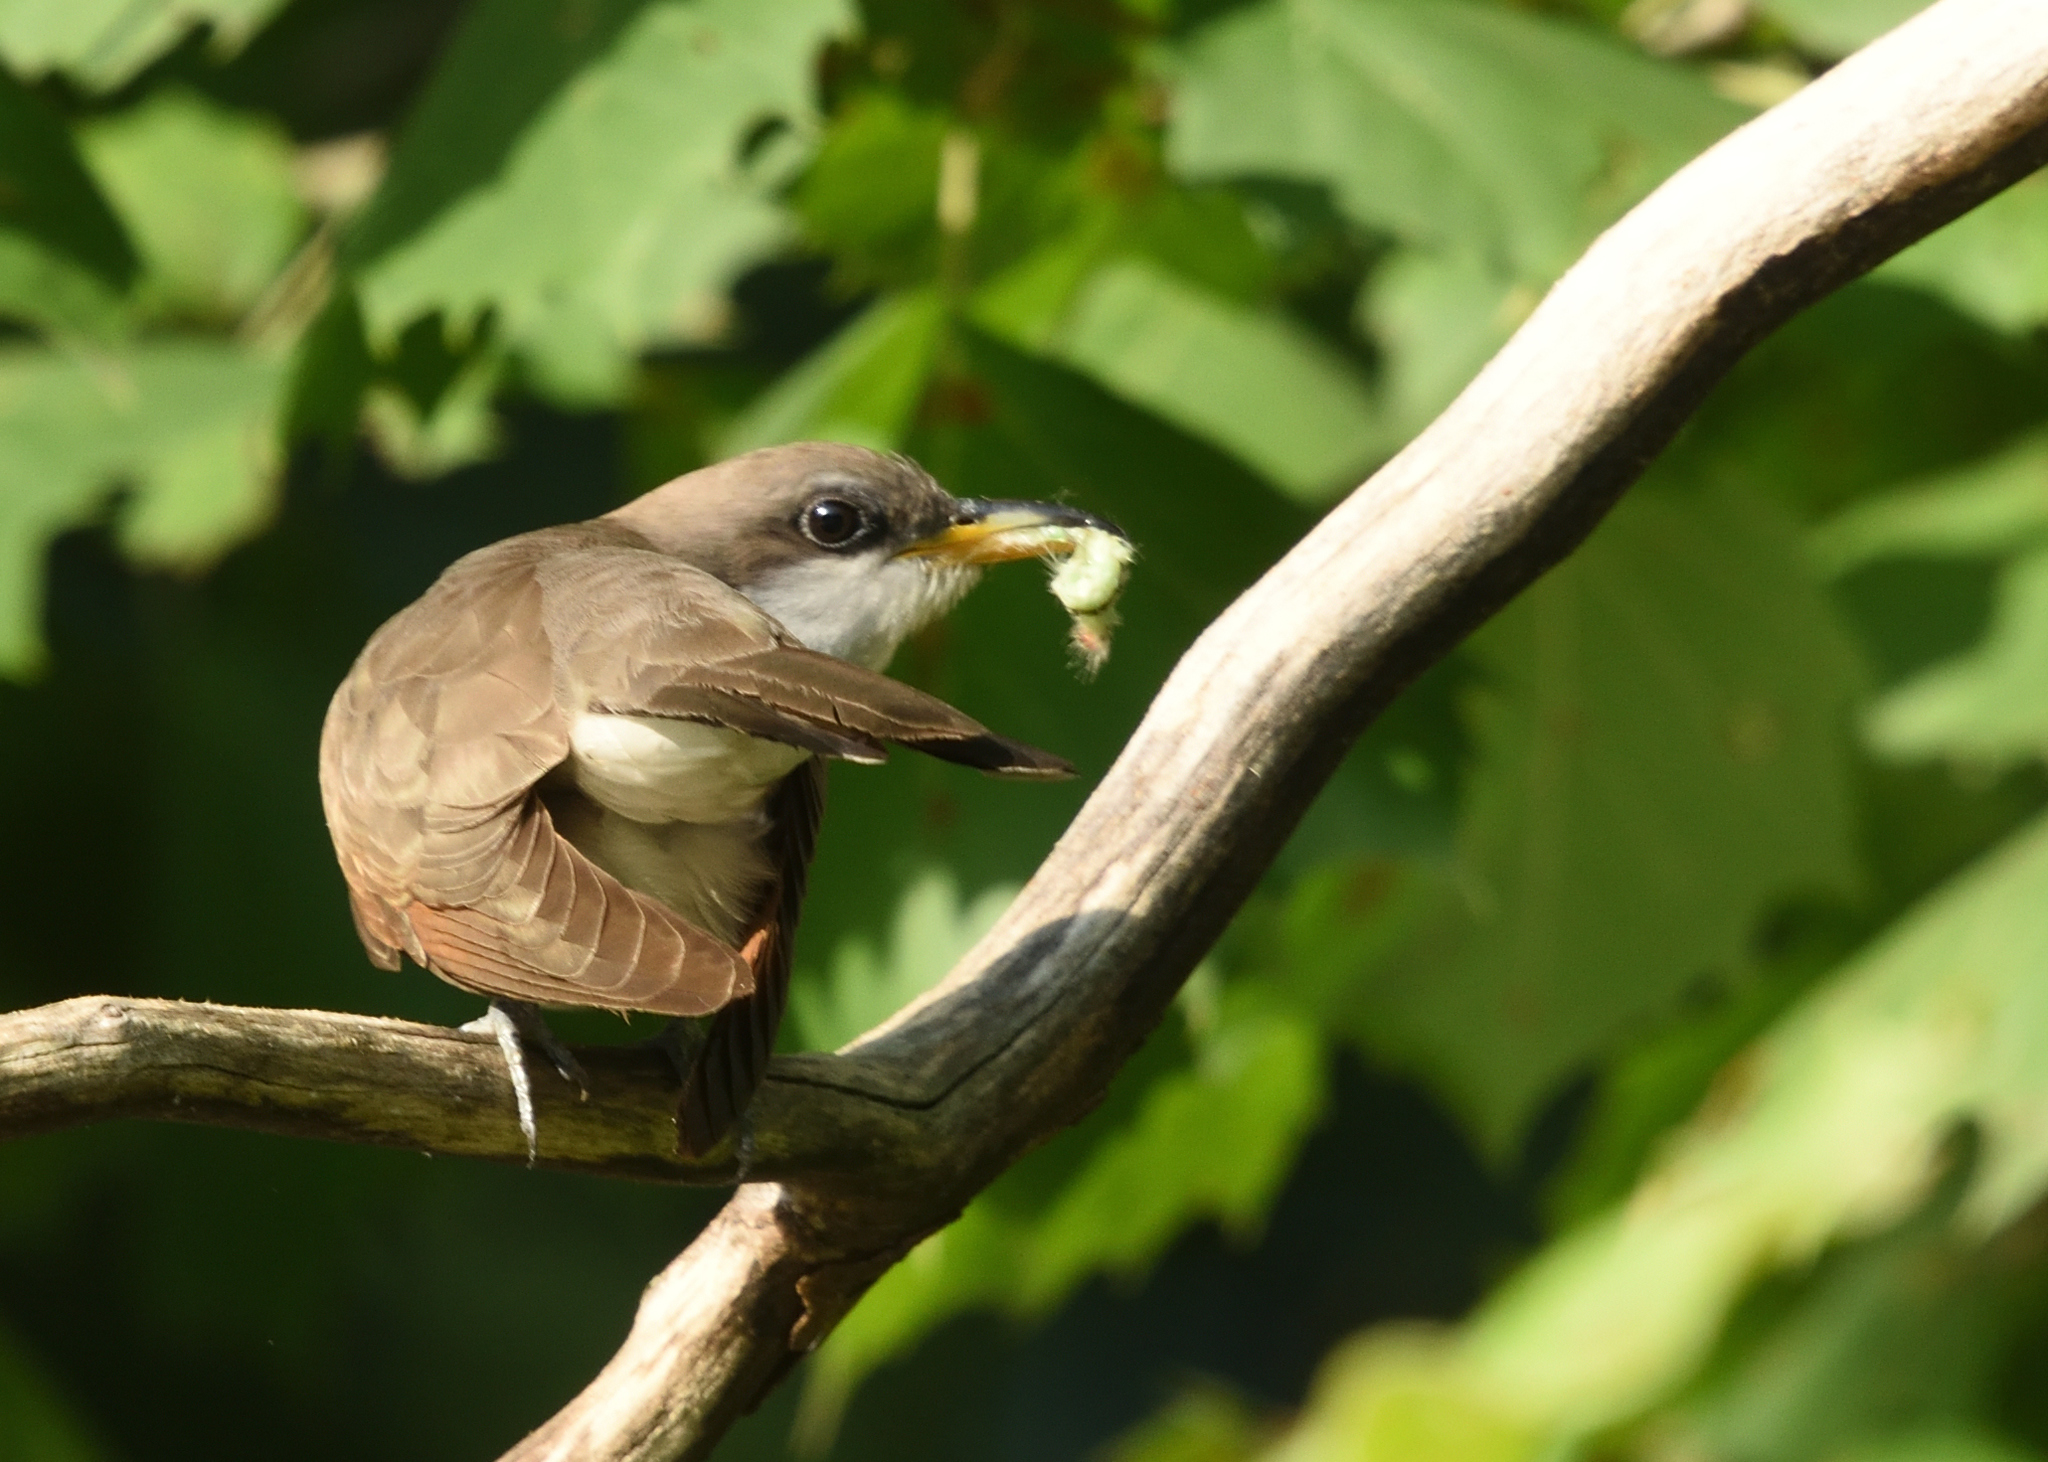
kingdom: Animalia
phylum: Chordata
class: Aves
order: Cuculiformes
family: Cuculidae
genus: Coccyzus
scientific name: Coccyzus americanus
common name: Yellow-billed cuckoo
